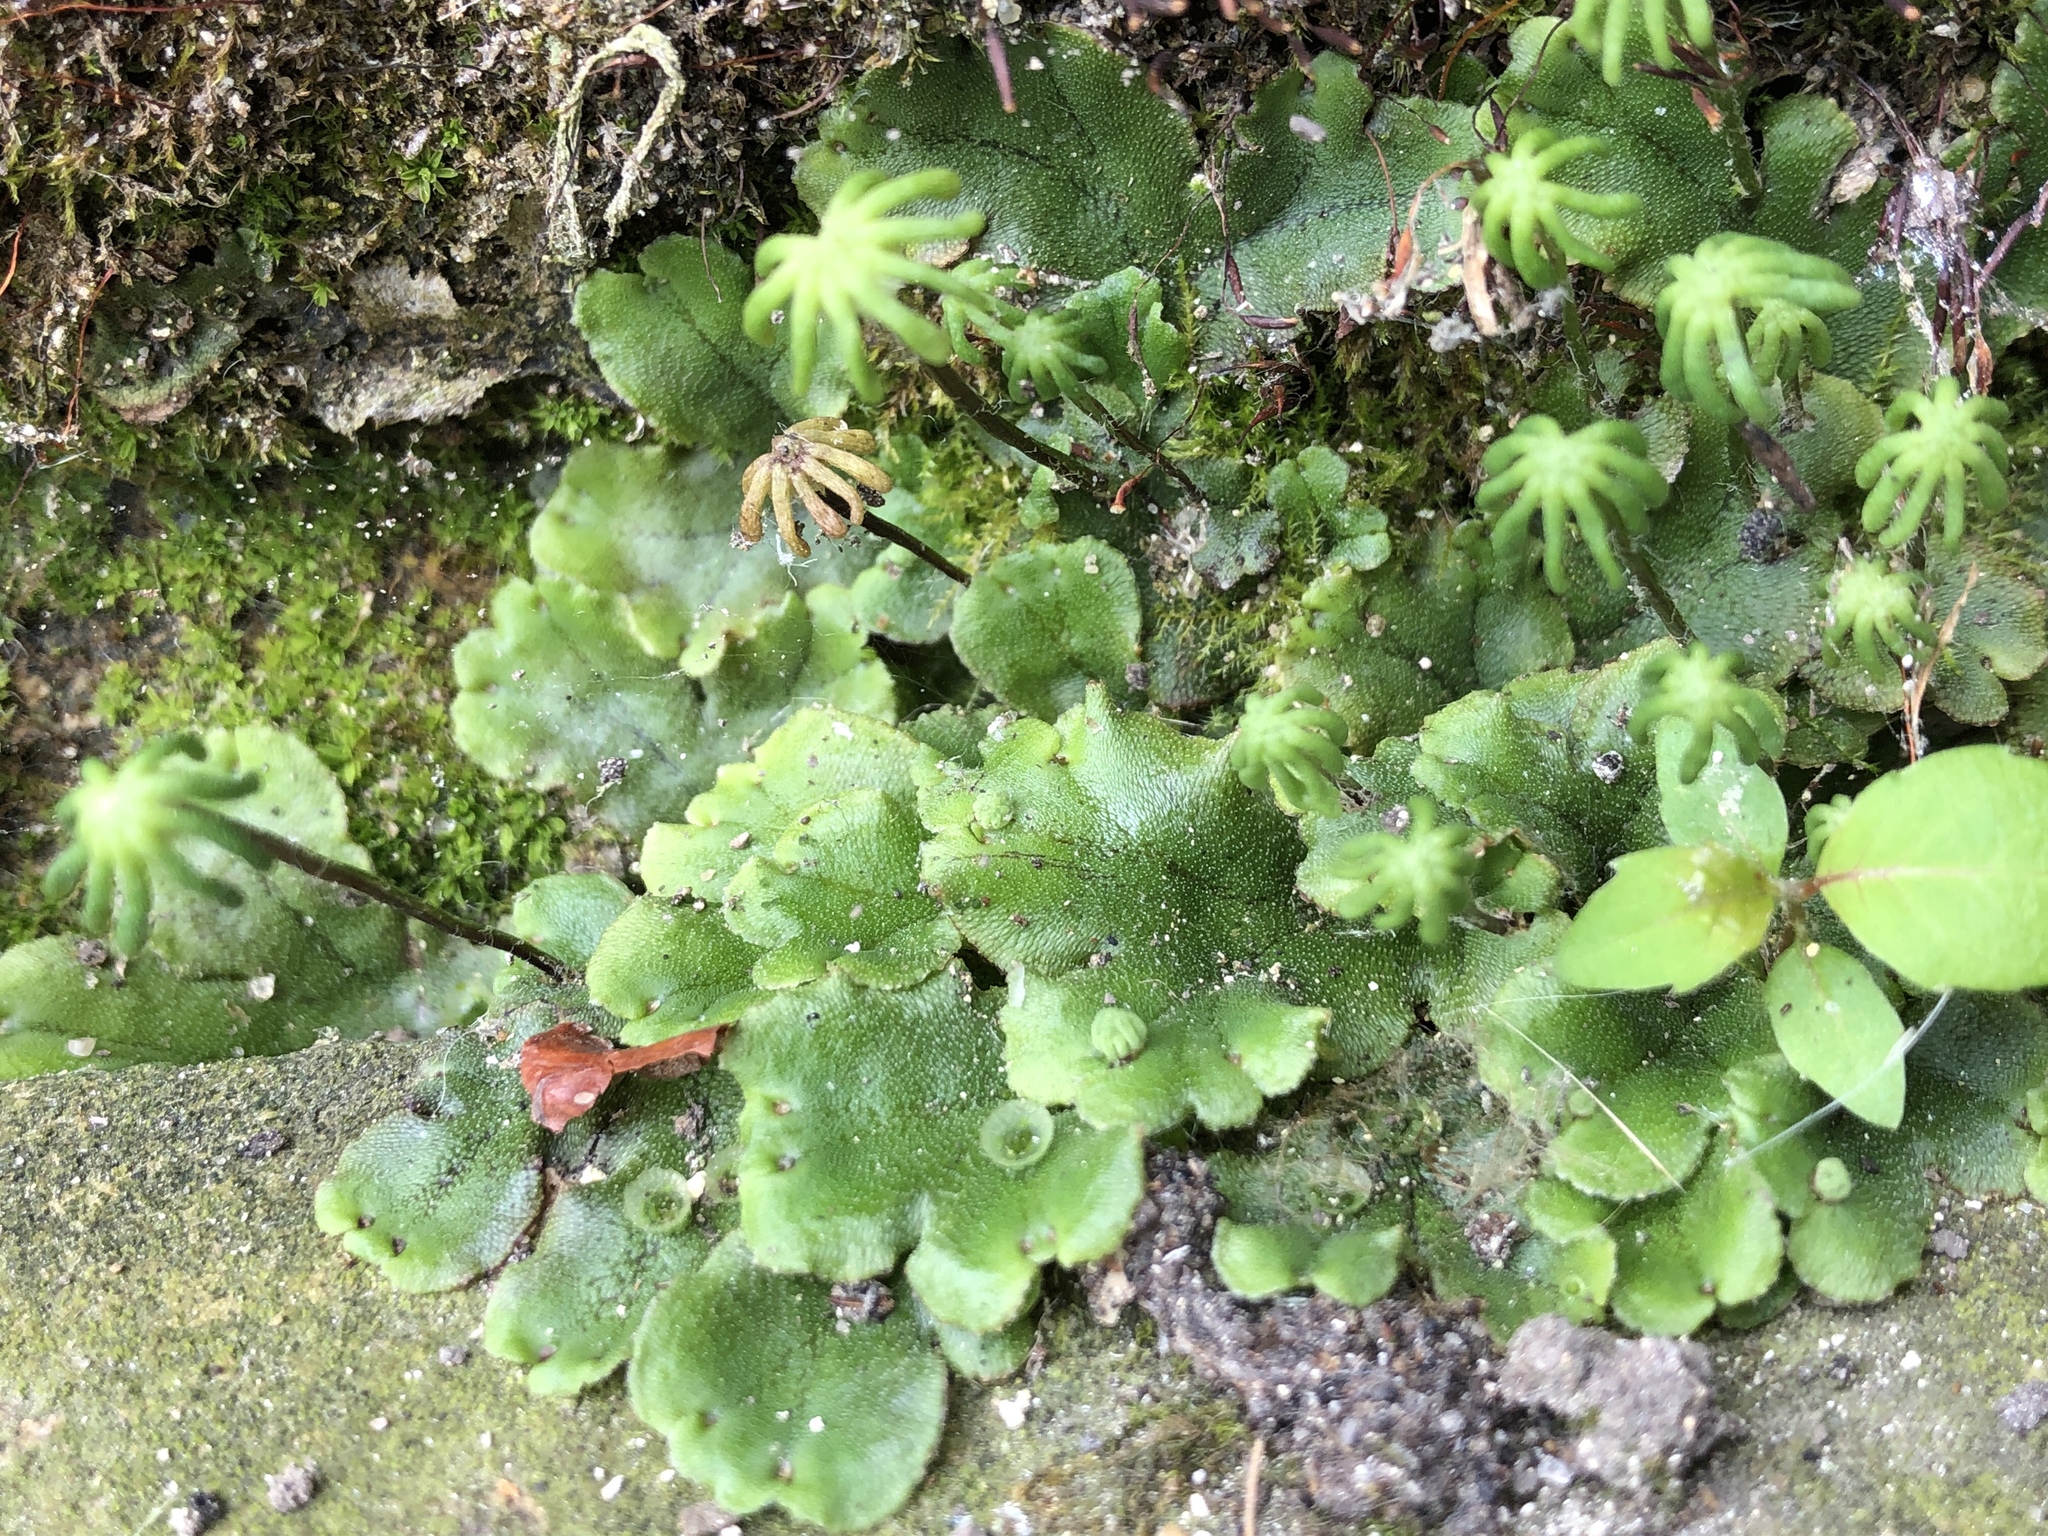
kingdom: Plantae
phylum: Marchantiophyta
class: Marchantiopsida
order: Marchantiales
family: Marchantiaceae
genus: Marchantia
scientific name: Marchantia polymorpha
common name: Common liverwort
